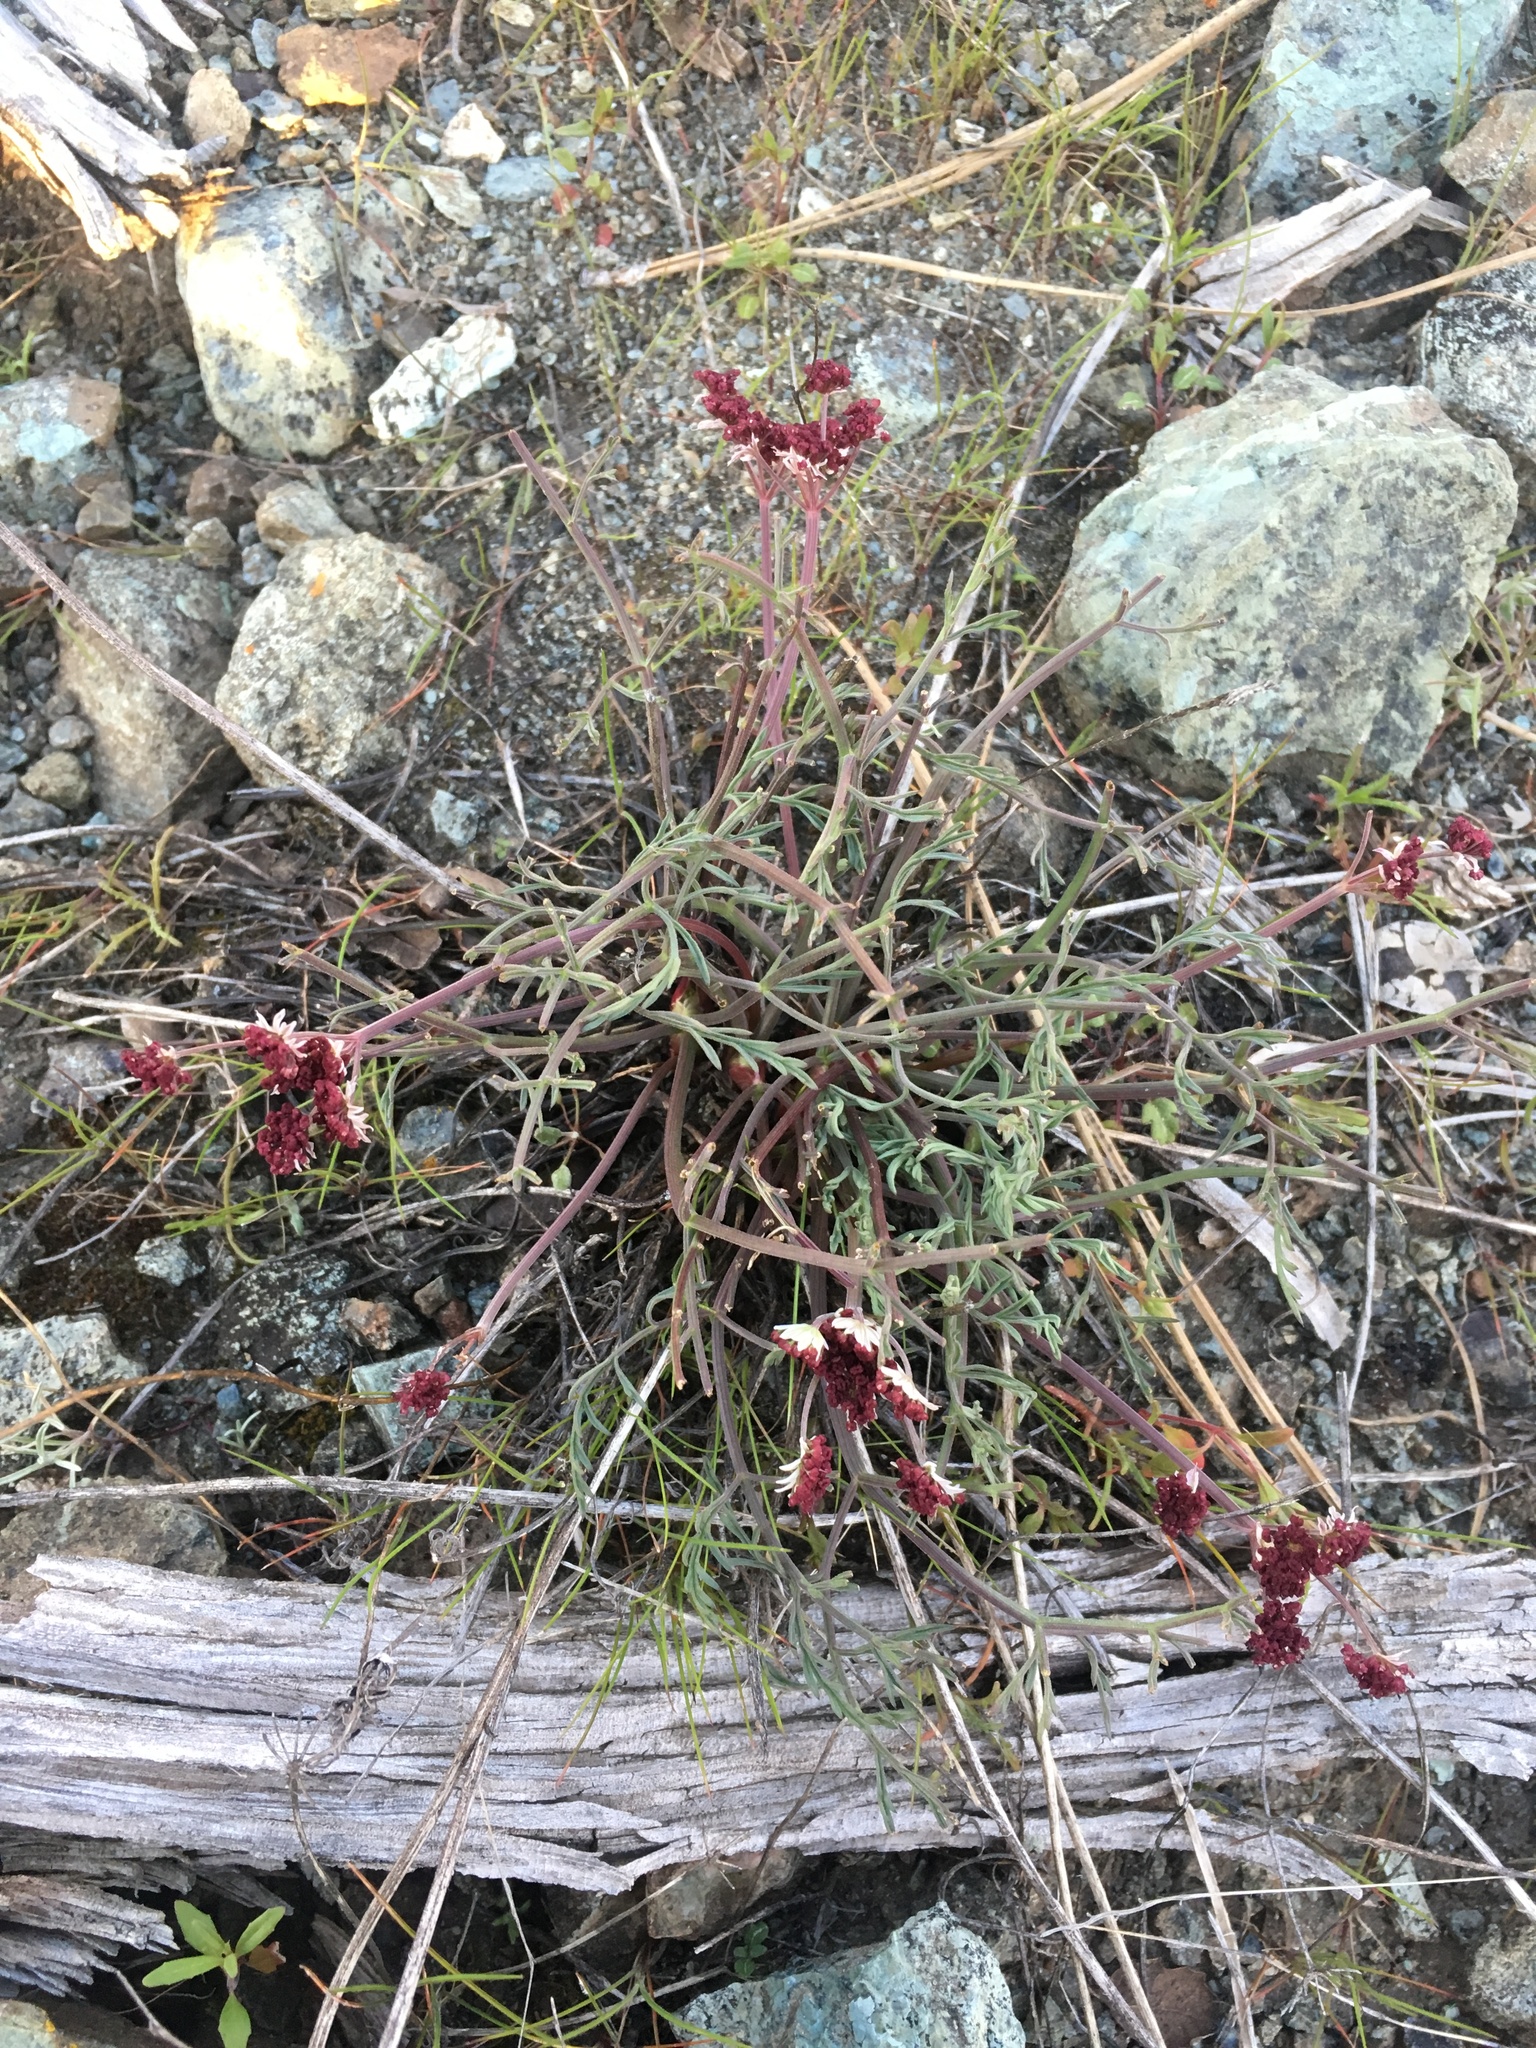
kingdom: Plantae
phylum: Tracheophyta
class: Magnoliopsida
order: Apiales
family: Apiaceae
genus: Lomatium
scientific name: Lomatium hooveri
